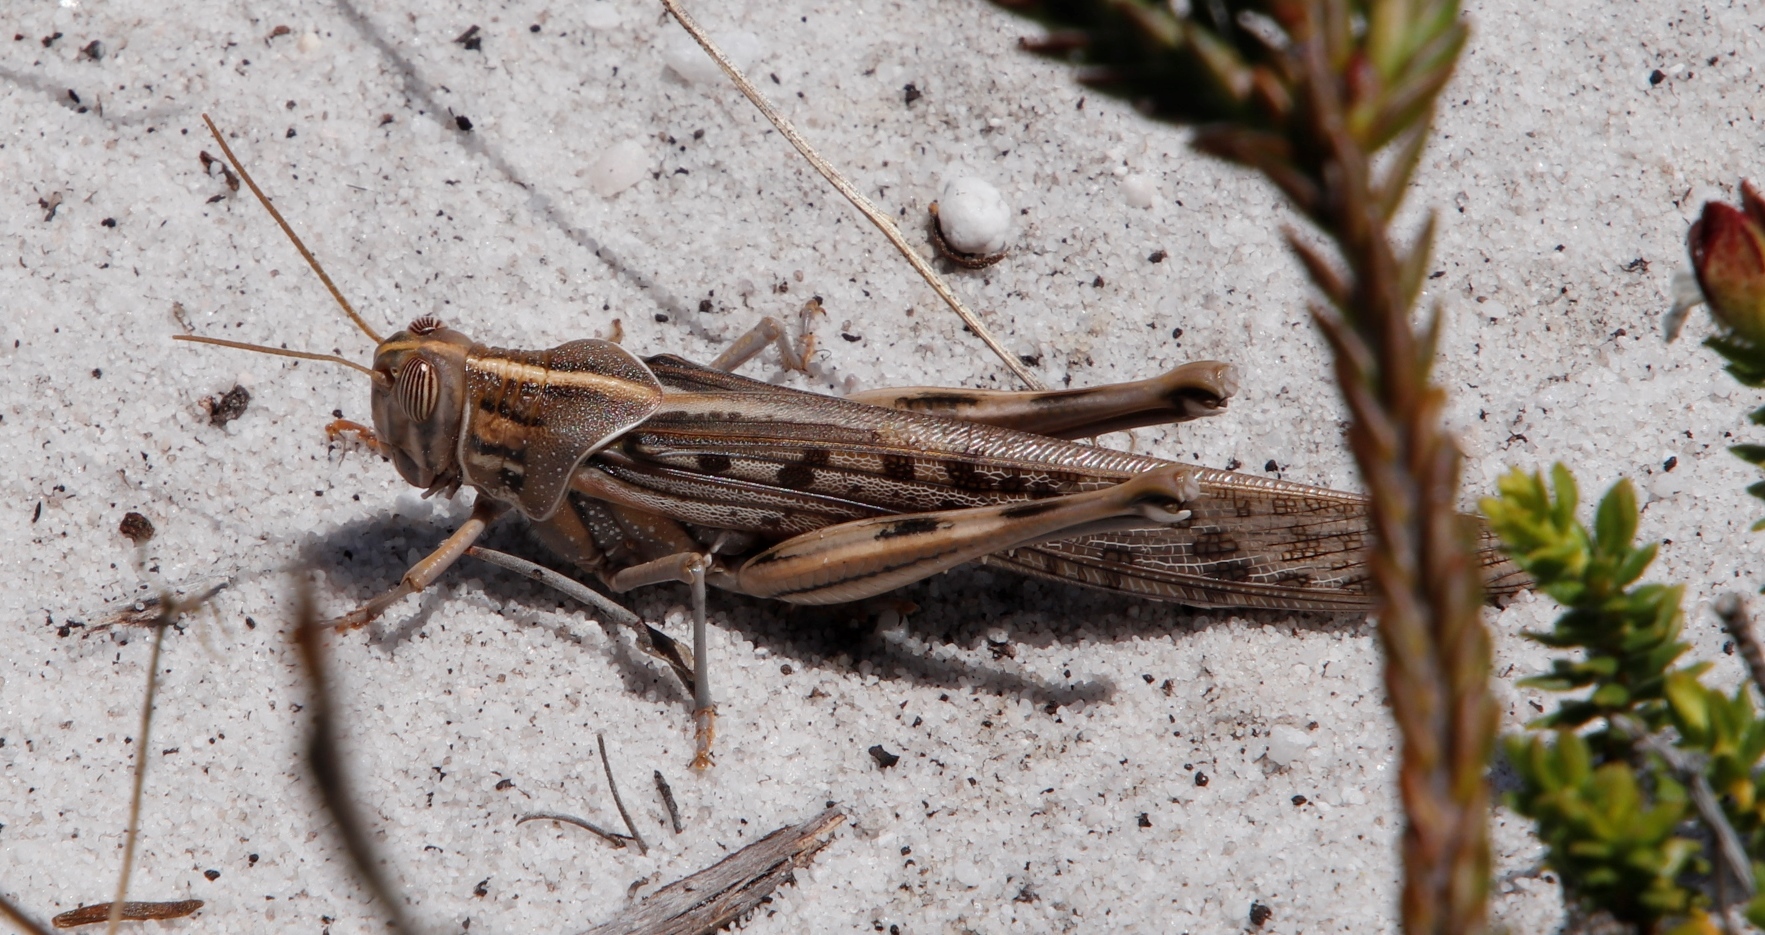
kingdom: Animalia
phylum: Arthropoda
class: Insecta
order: Orthoptera
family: Acrididae
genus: Schistocerca
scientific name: Schistocerca gregaria
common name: Desert locust
